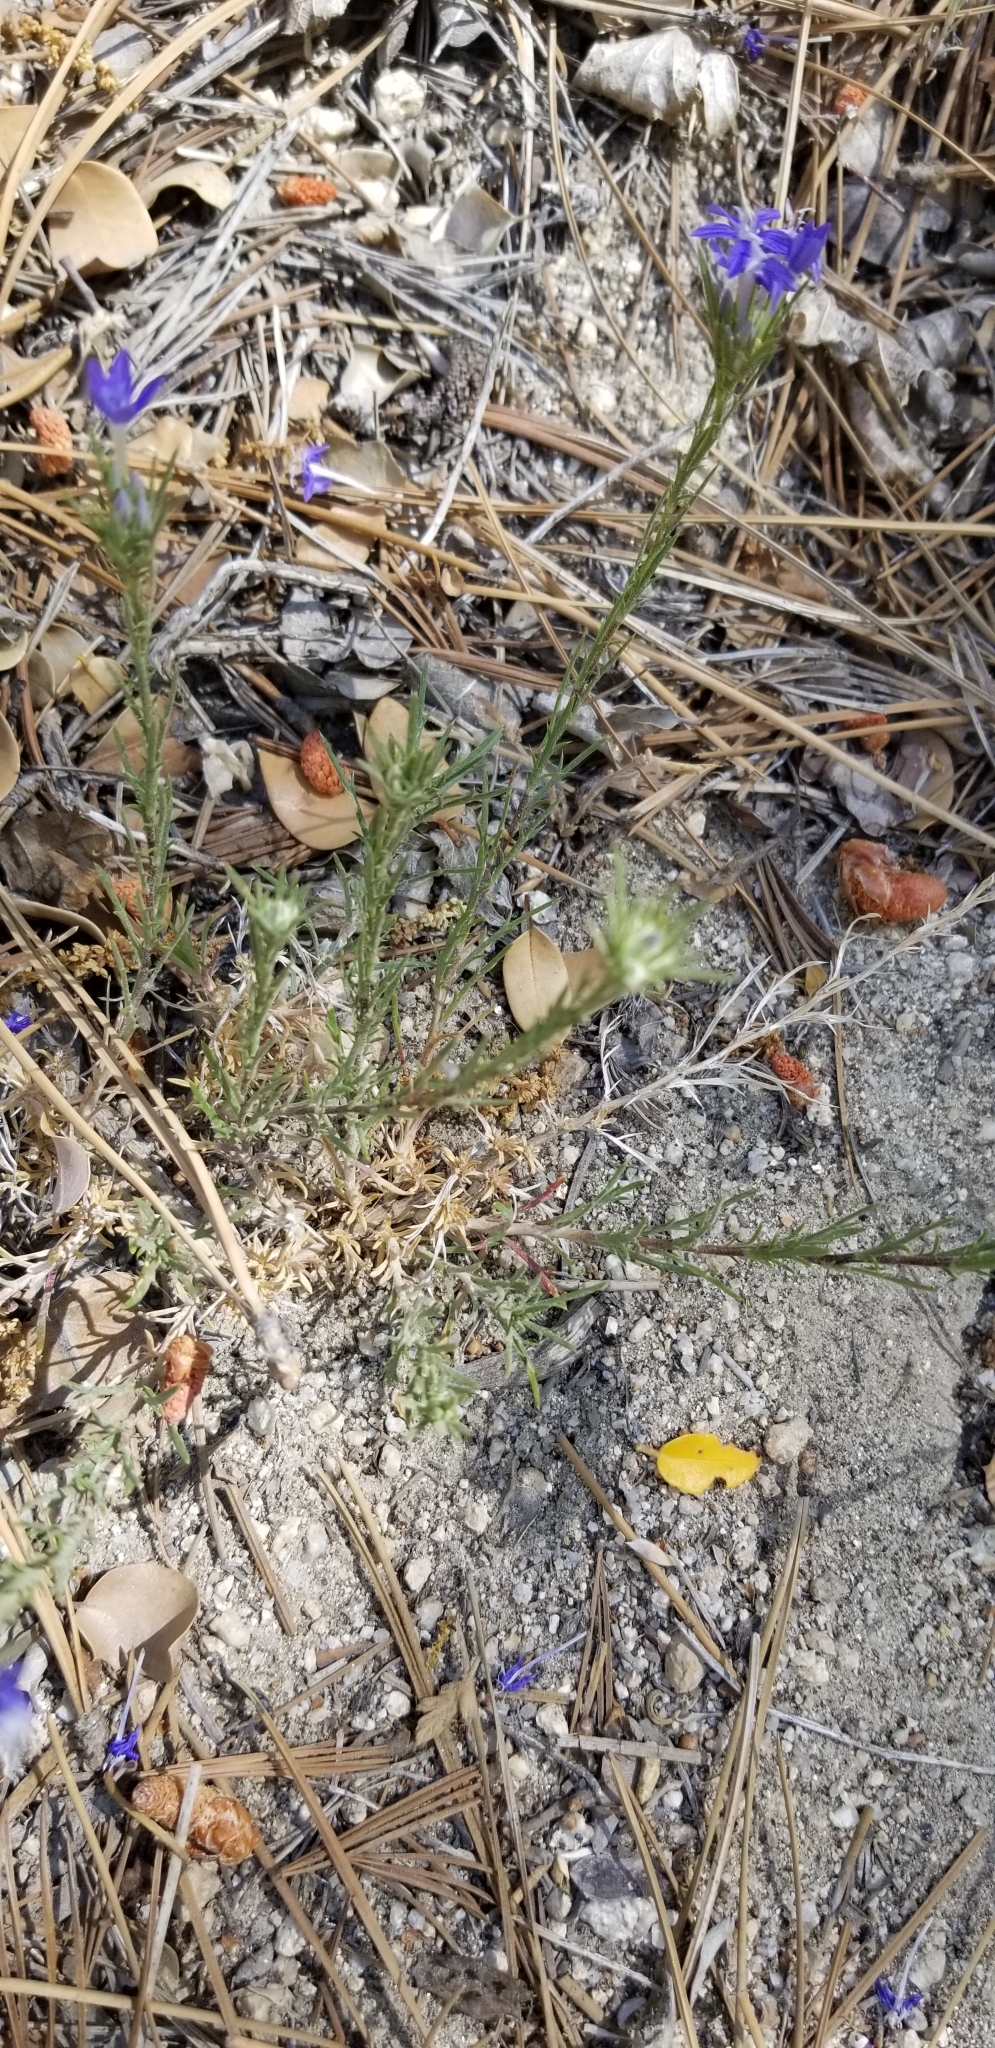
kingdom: Plantae
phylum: Tracheophyta
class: Magnoliopsida
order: Ericales
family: Polemoniaceae
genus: Eriastrum
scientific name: Eriastrum densifolium
